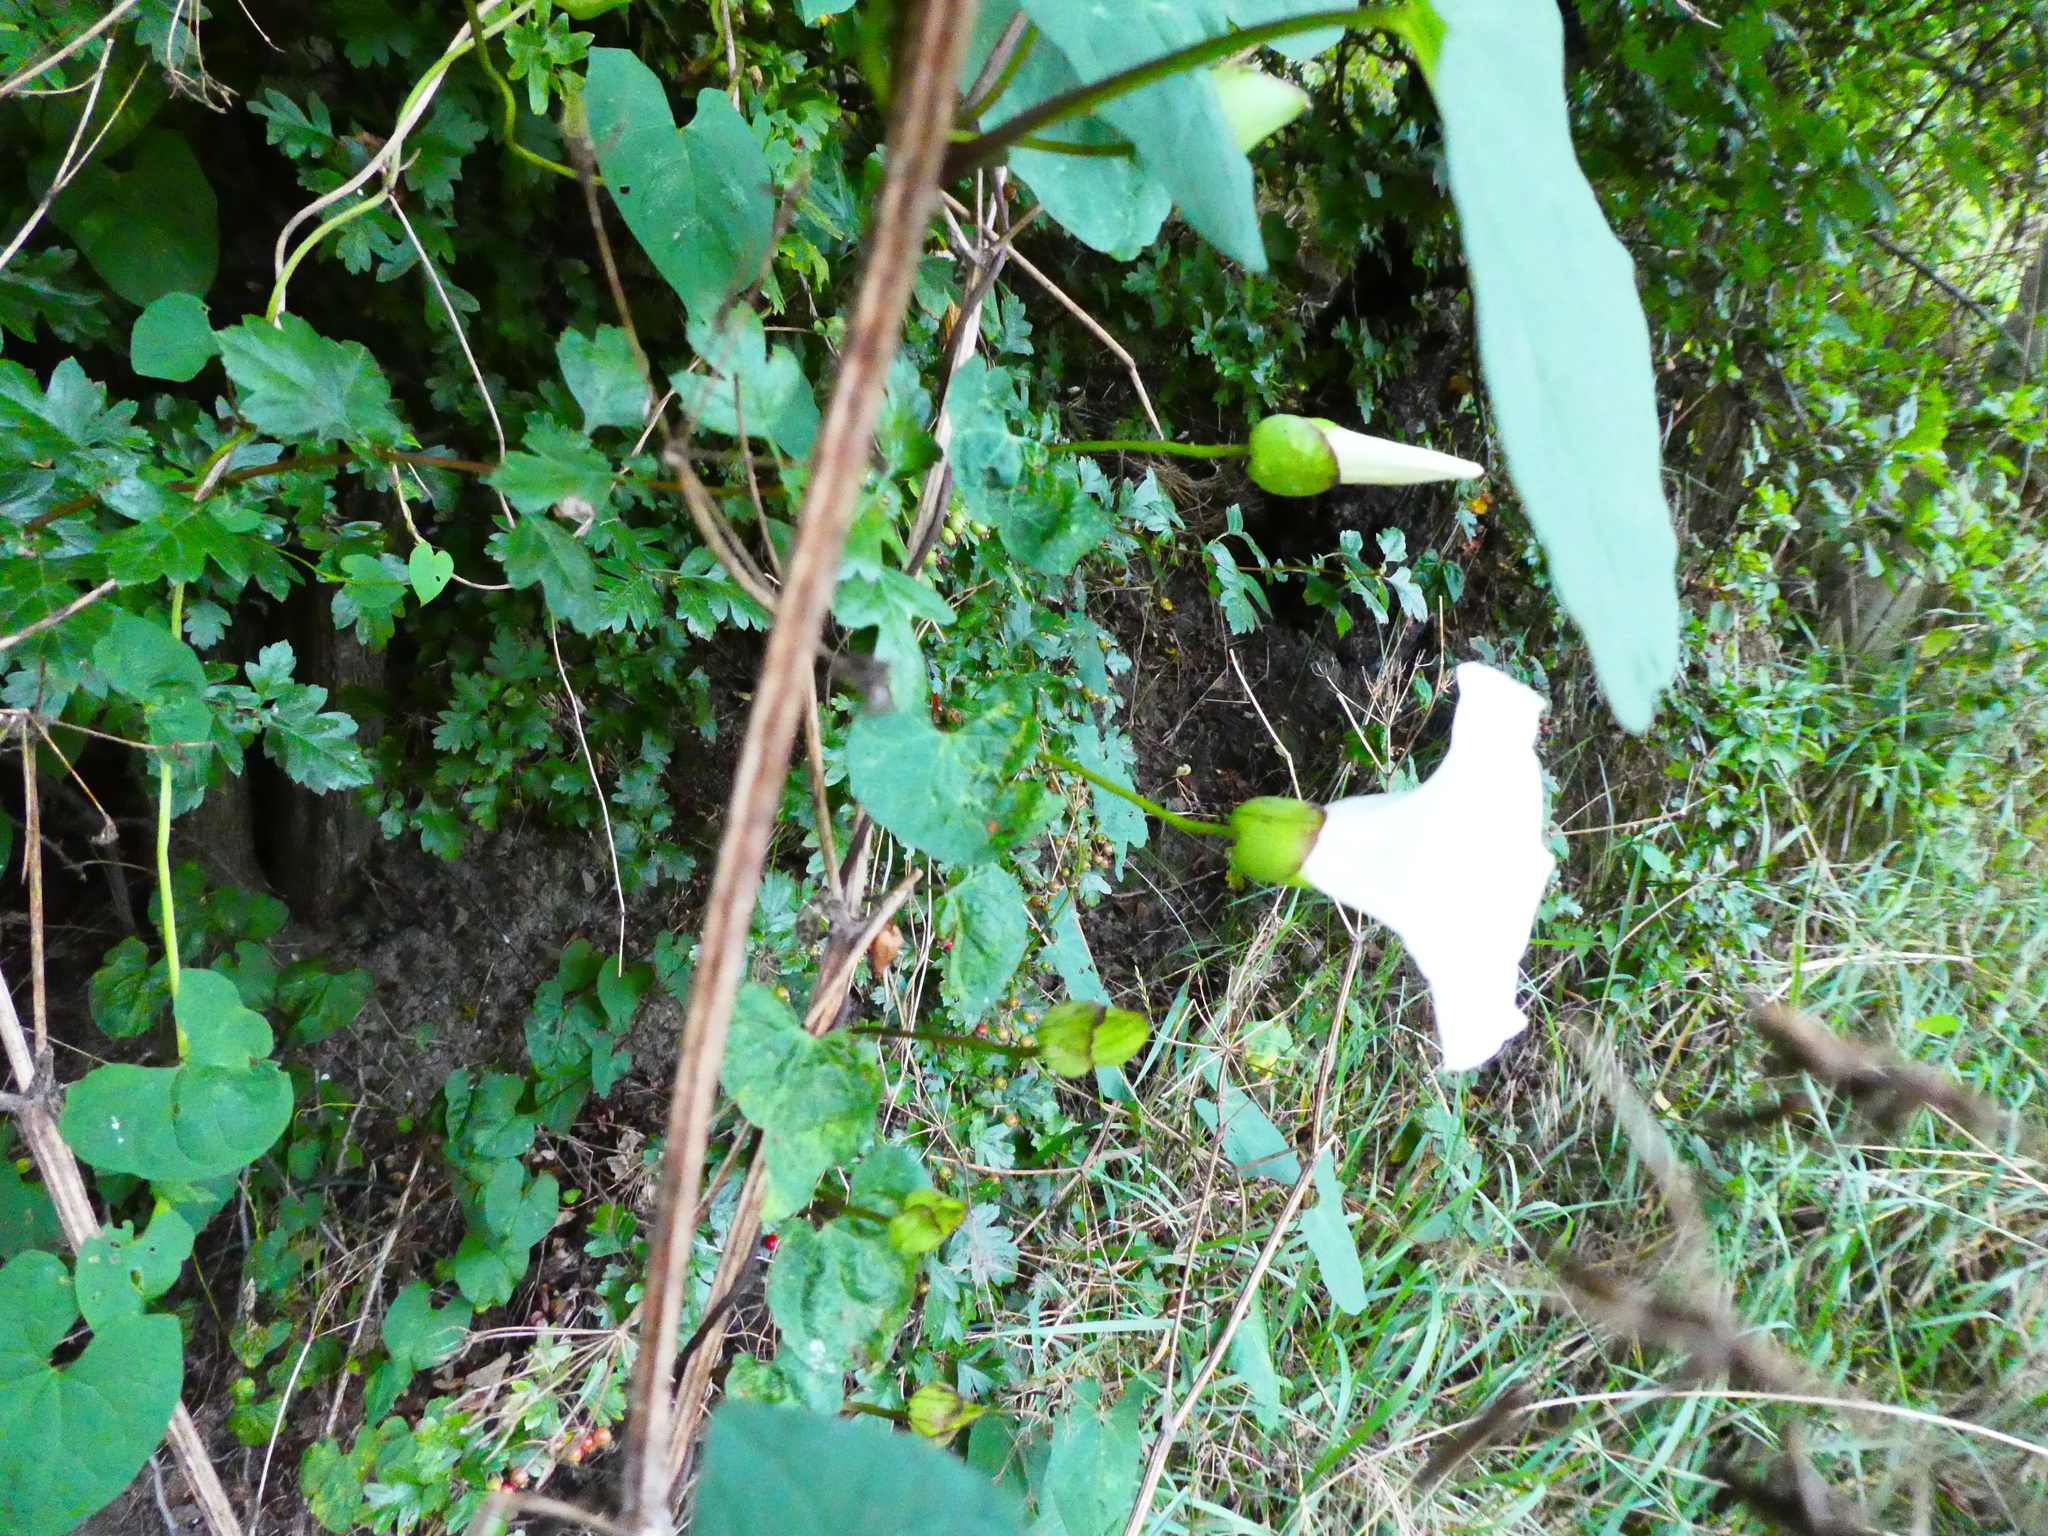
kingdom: Plantae
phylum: Tracheophyta
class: Magnoliopsida
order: Solanales
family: Convolvulaceae
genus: Calystegia
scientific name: Calystegia silvatica
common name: Large bindweed
